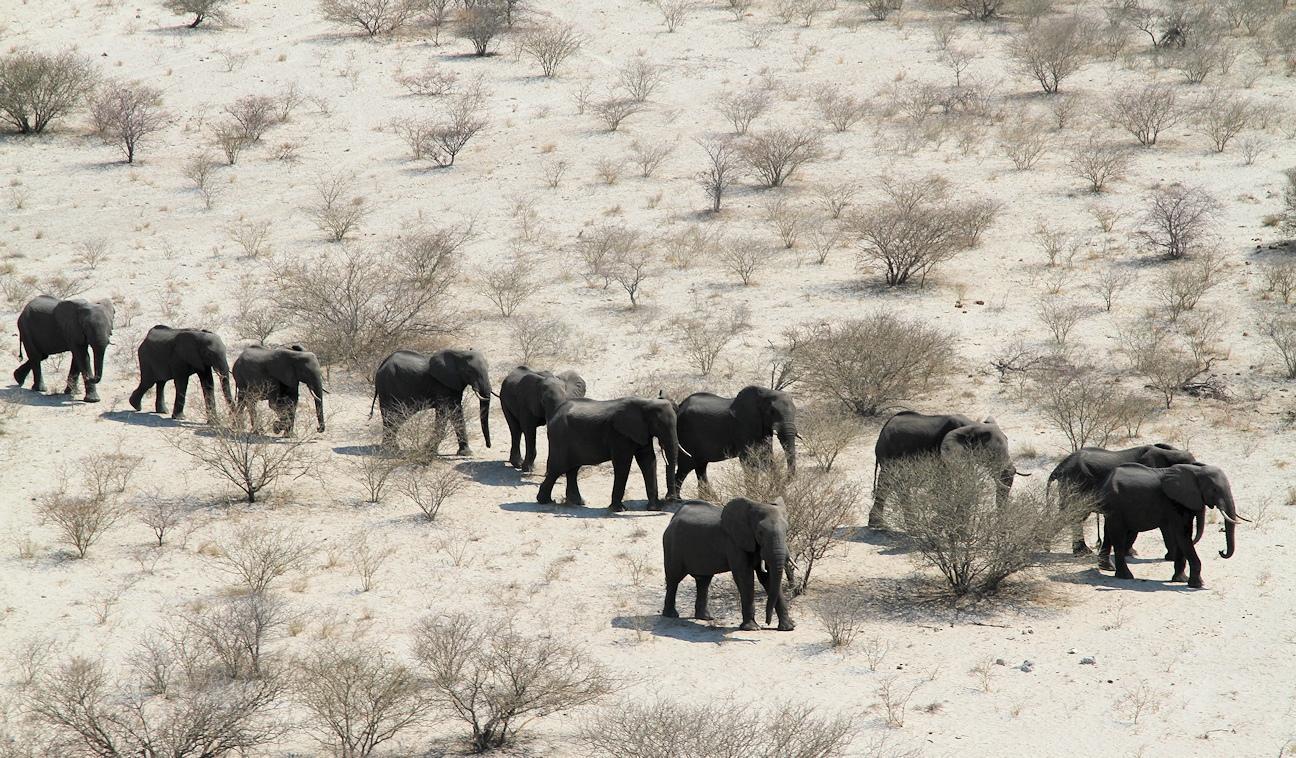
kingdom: Animalia
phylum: Chordata
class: Mammalia
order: Proboscidea
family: Elephantidae
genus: Loxodonta
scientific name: Loxodonta africana
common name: African elephant
